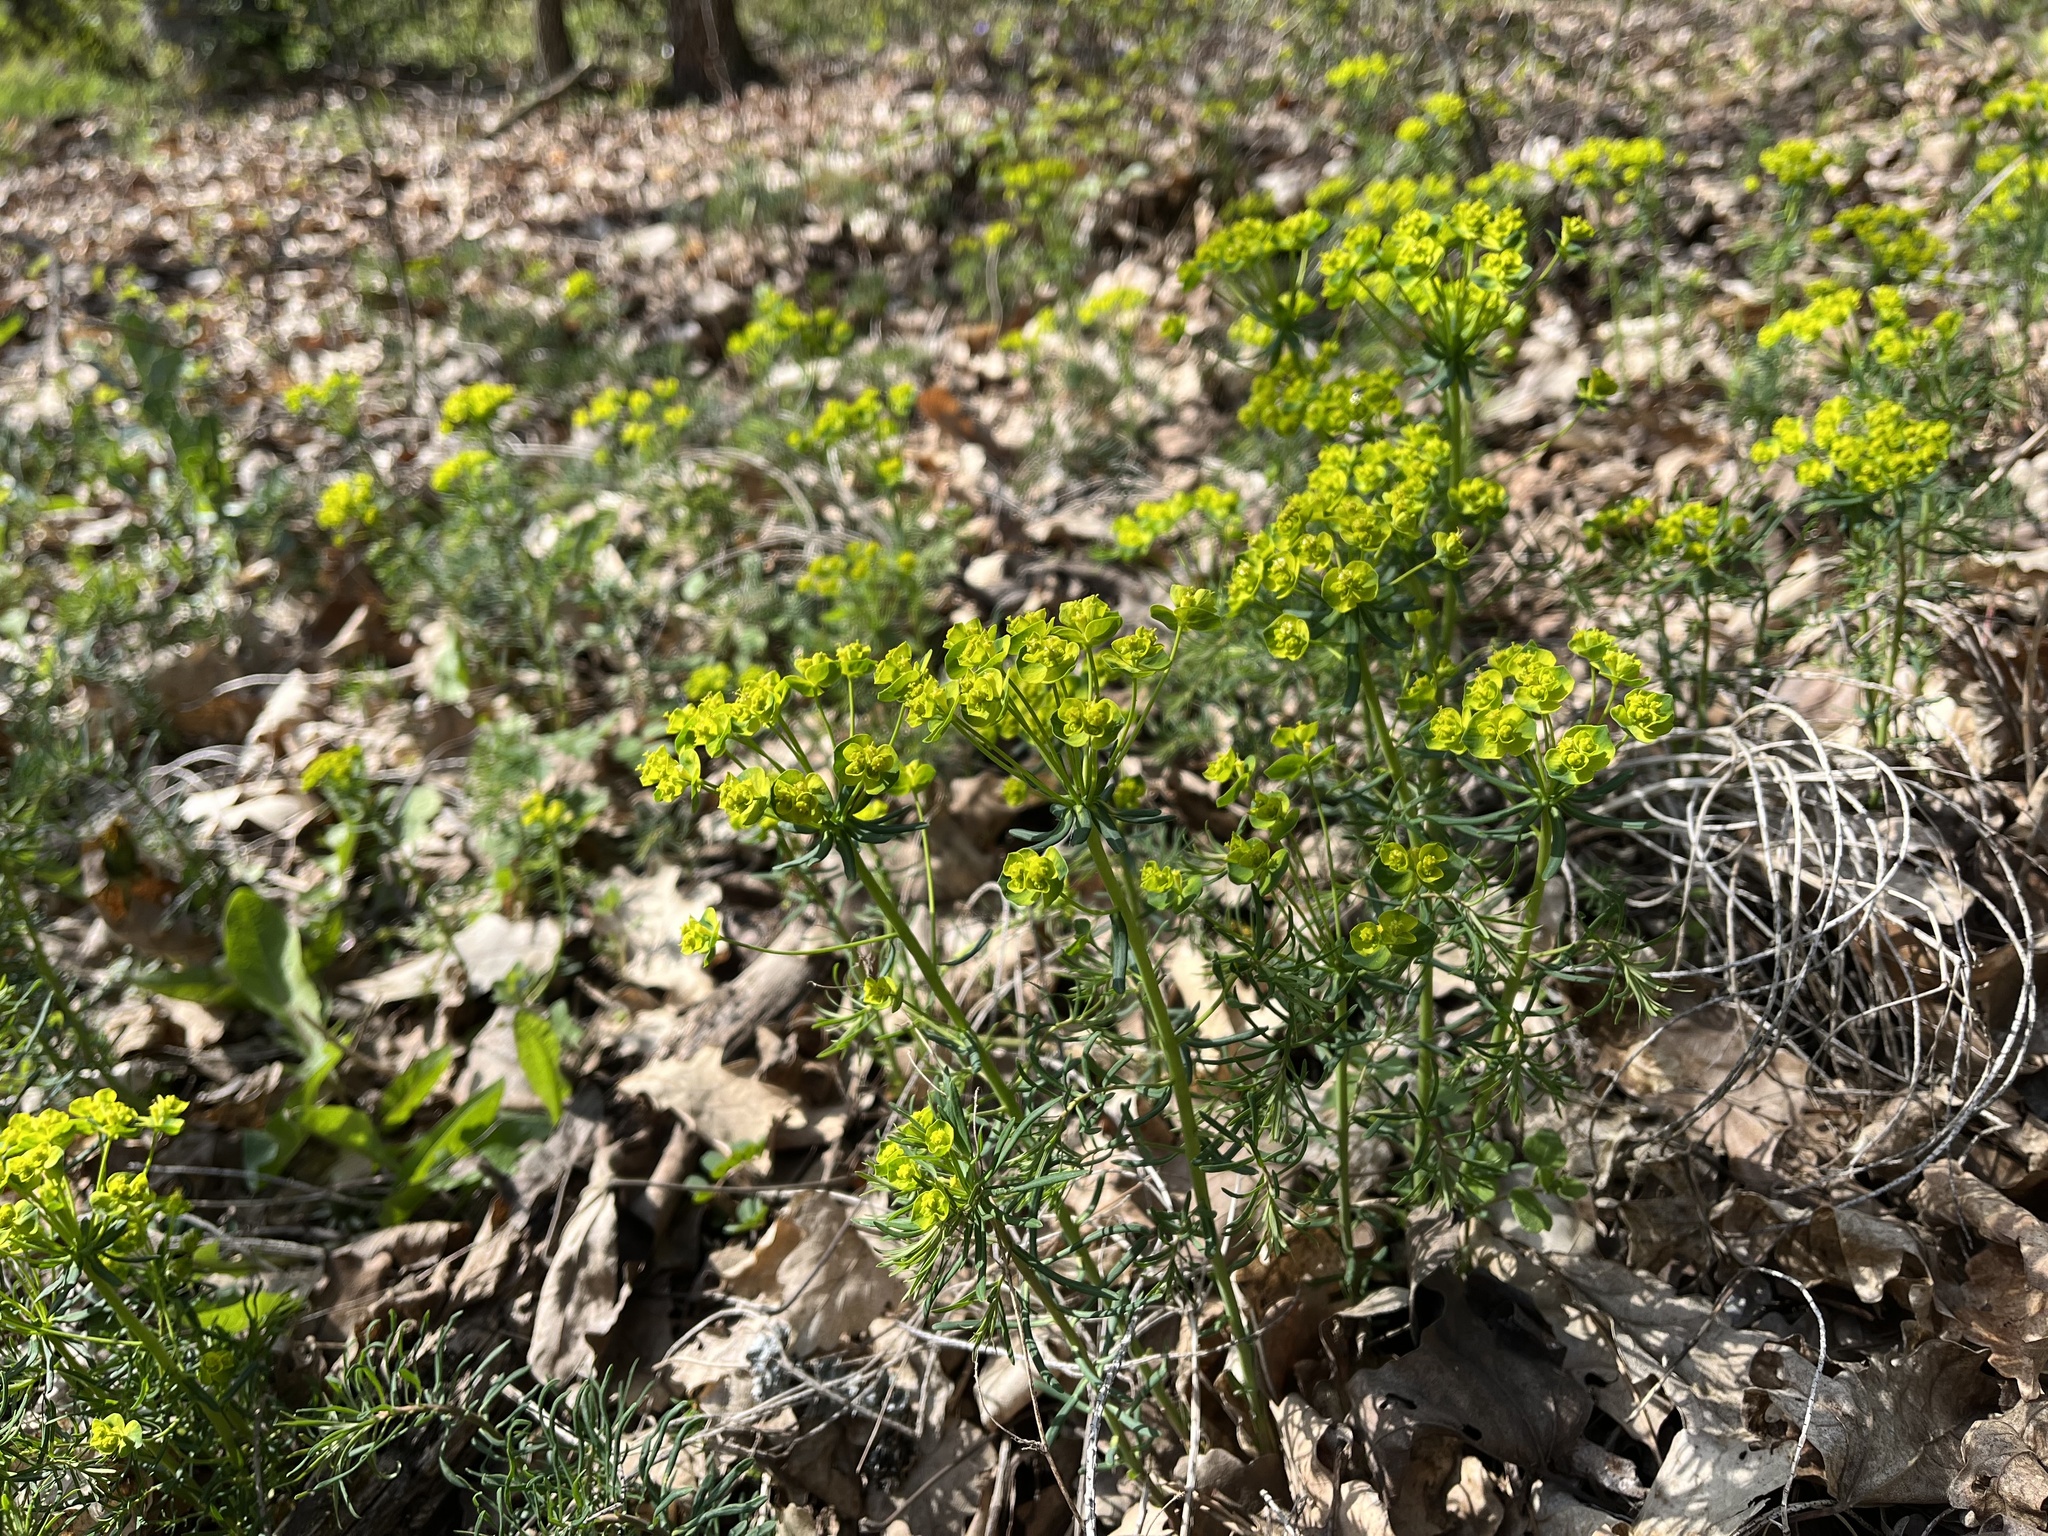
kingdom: Plantae
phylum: Tracheophyta
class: Magnoliopsida
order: Malpighiales
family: Euphorbiaceae
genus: Euphorbia
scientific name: Euphorbia cyparissias
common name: Cypress spurge
